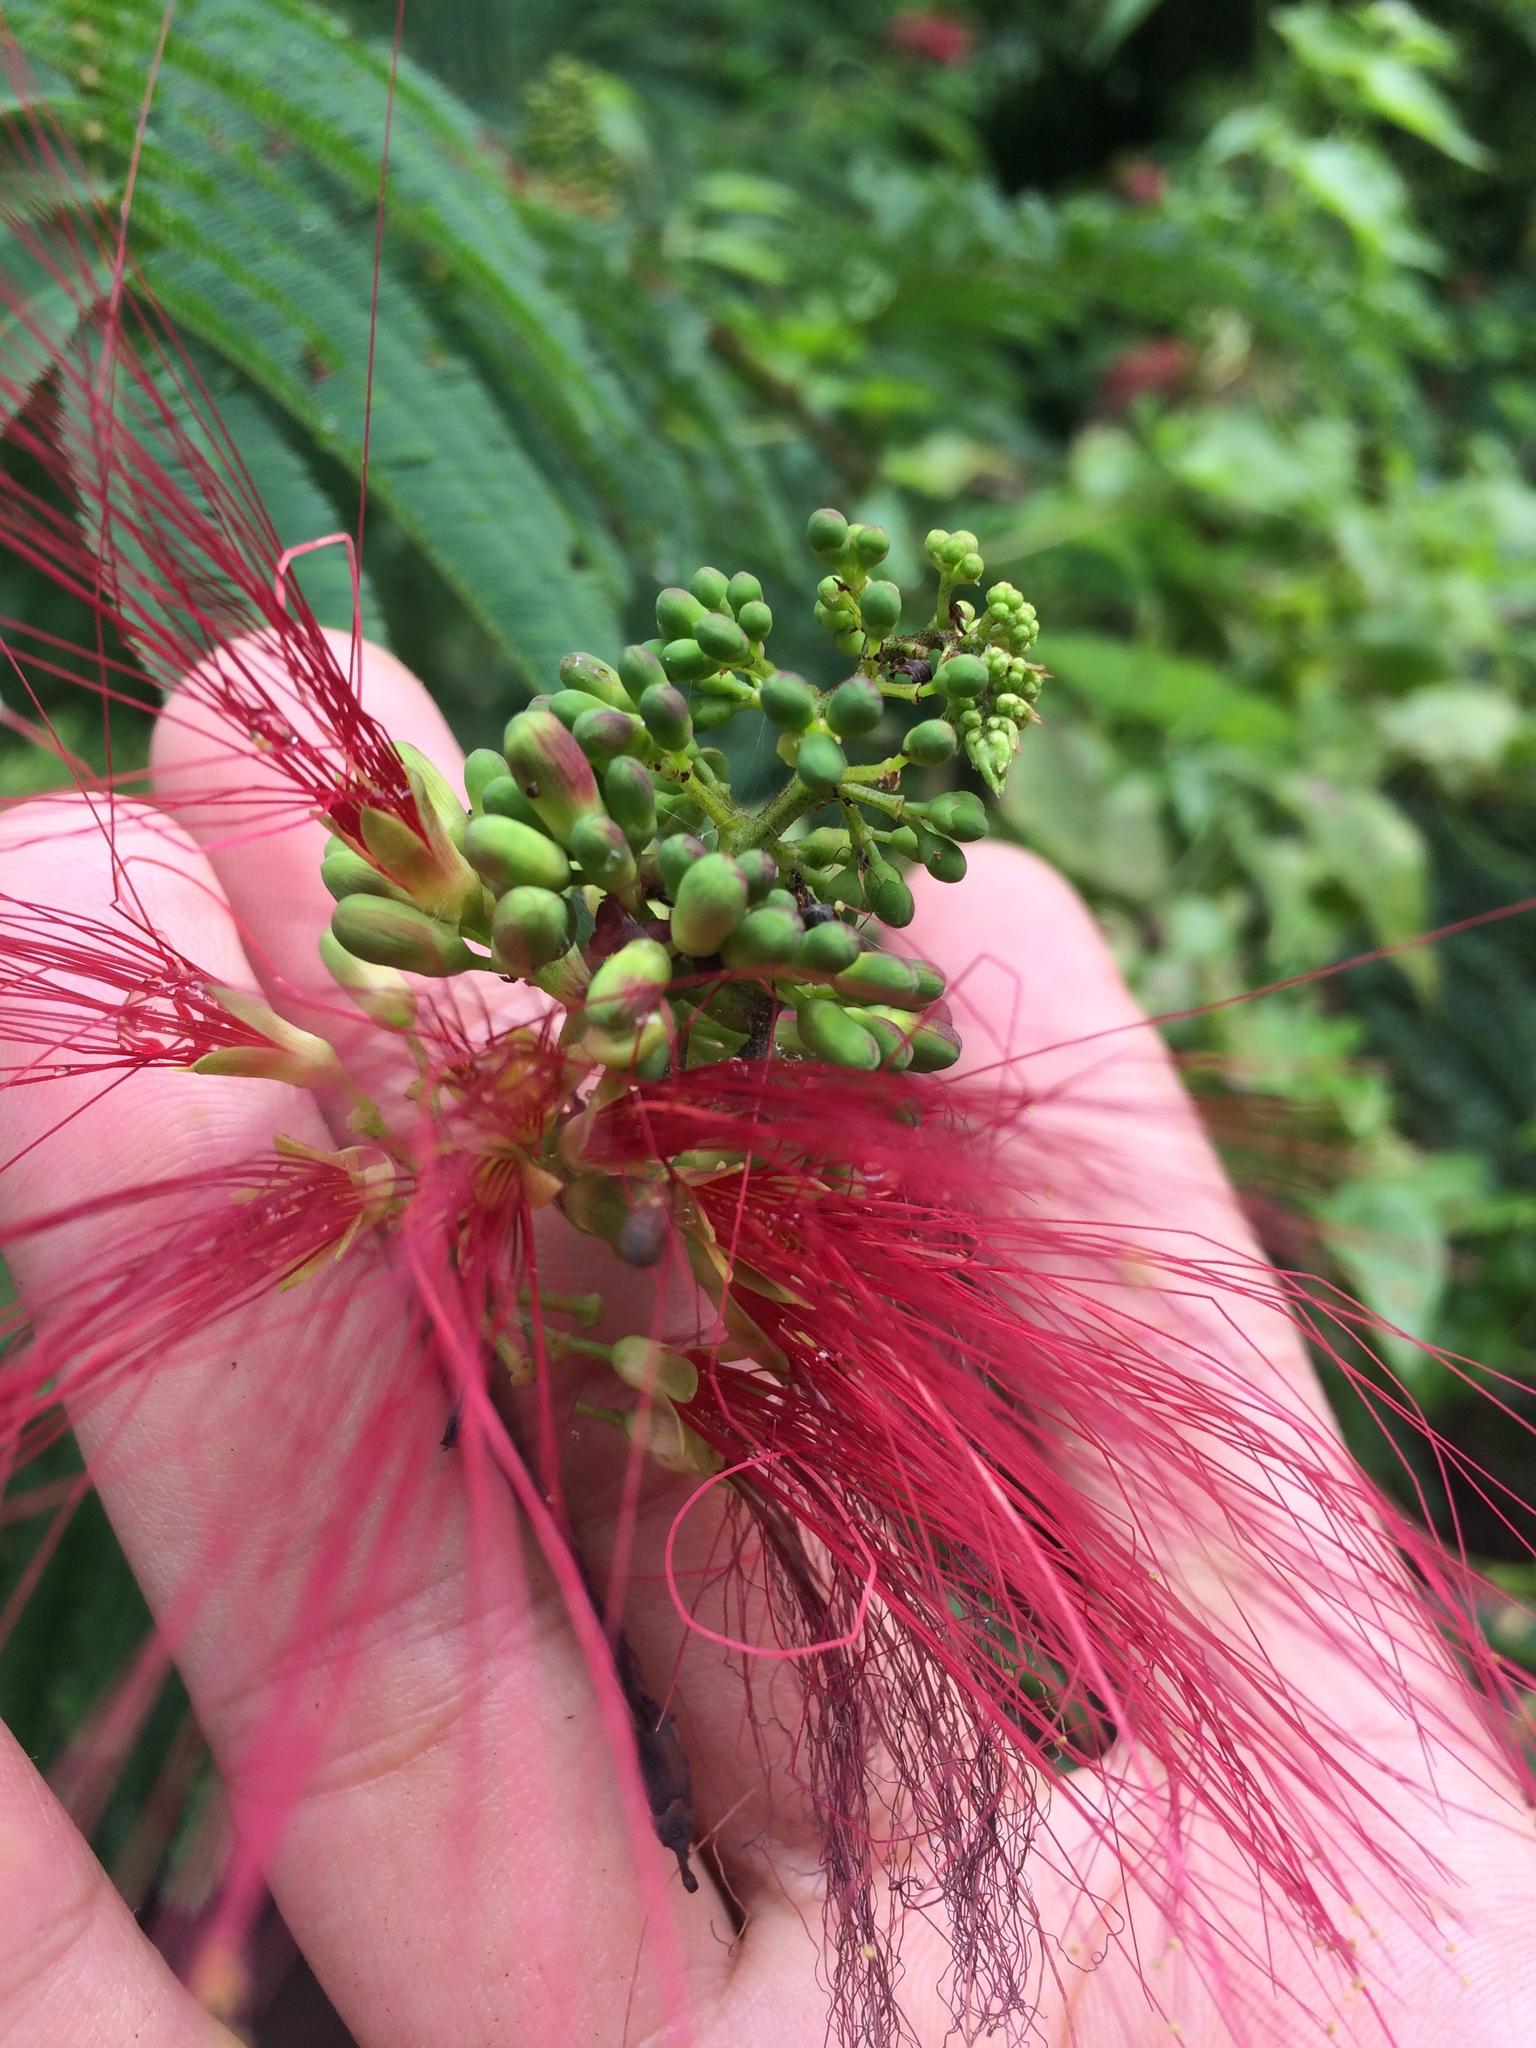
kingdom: Plantae
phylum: Tracheophyta
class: Magnoliopsida
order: Fabales
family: Fabaceae
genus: Calliandra
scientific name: Calliandra houstoniana
